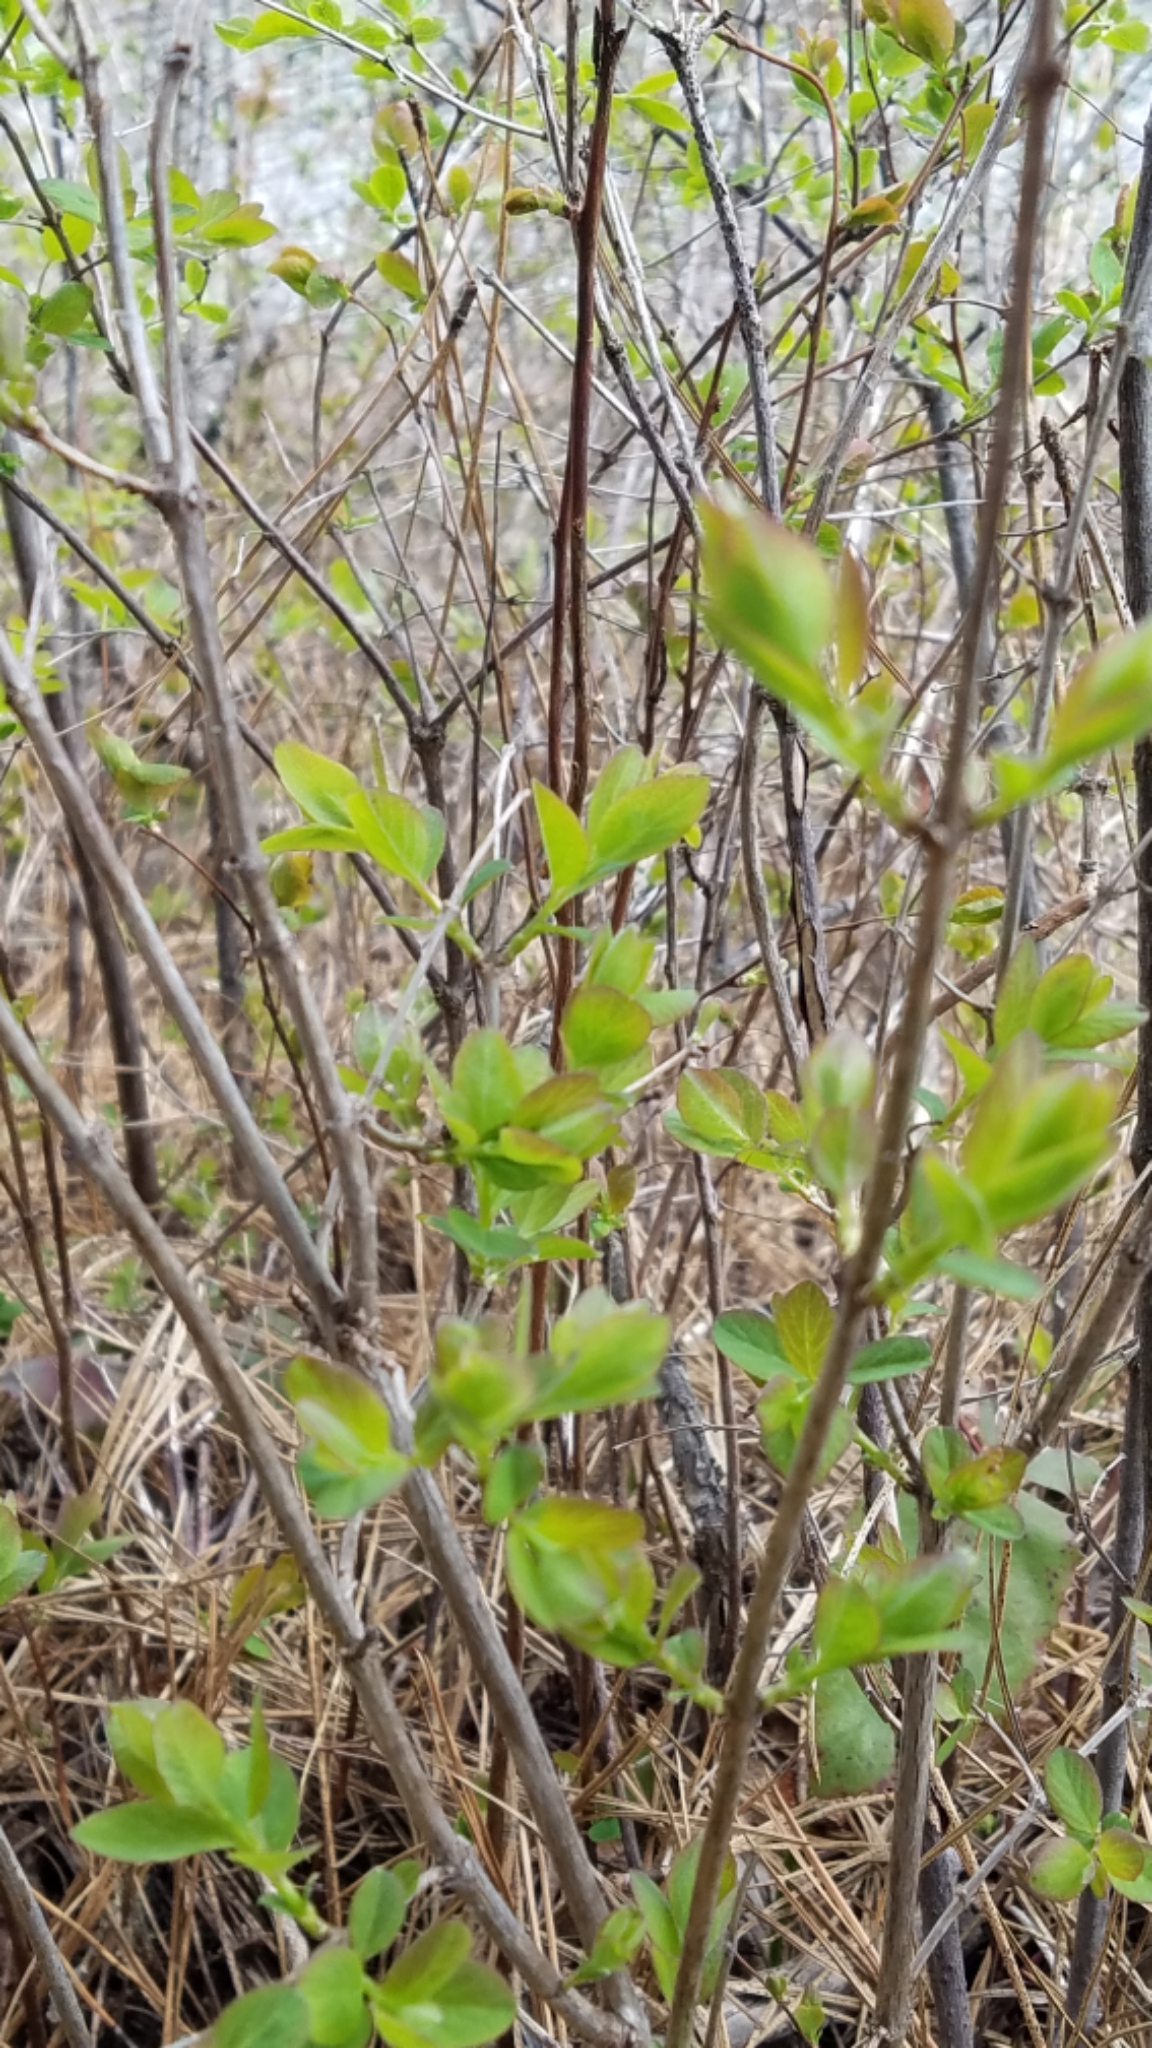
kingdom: Plantae
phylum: Tracheophyta
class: Magnoliopsida
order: Dipsacales
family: Caprifoliaceae
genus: Symphoricarpos
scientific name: Symphoricarpos albus
